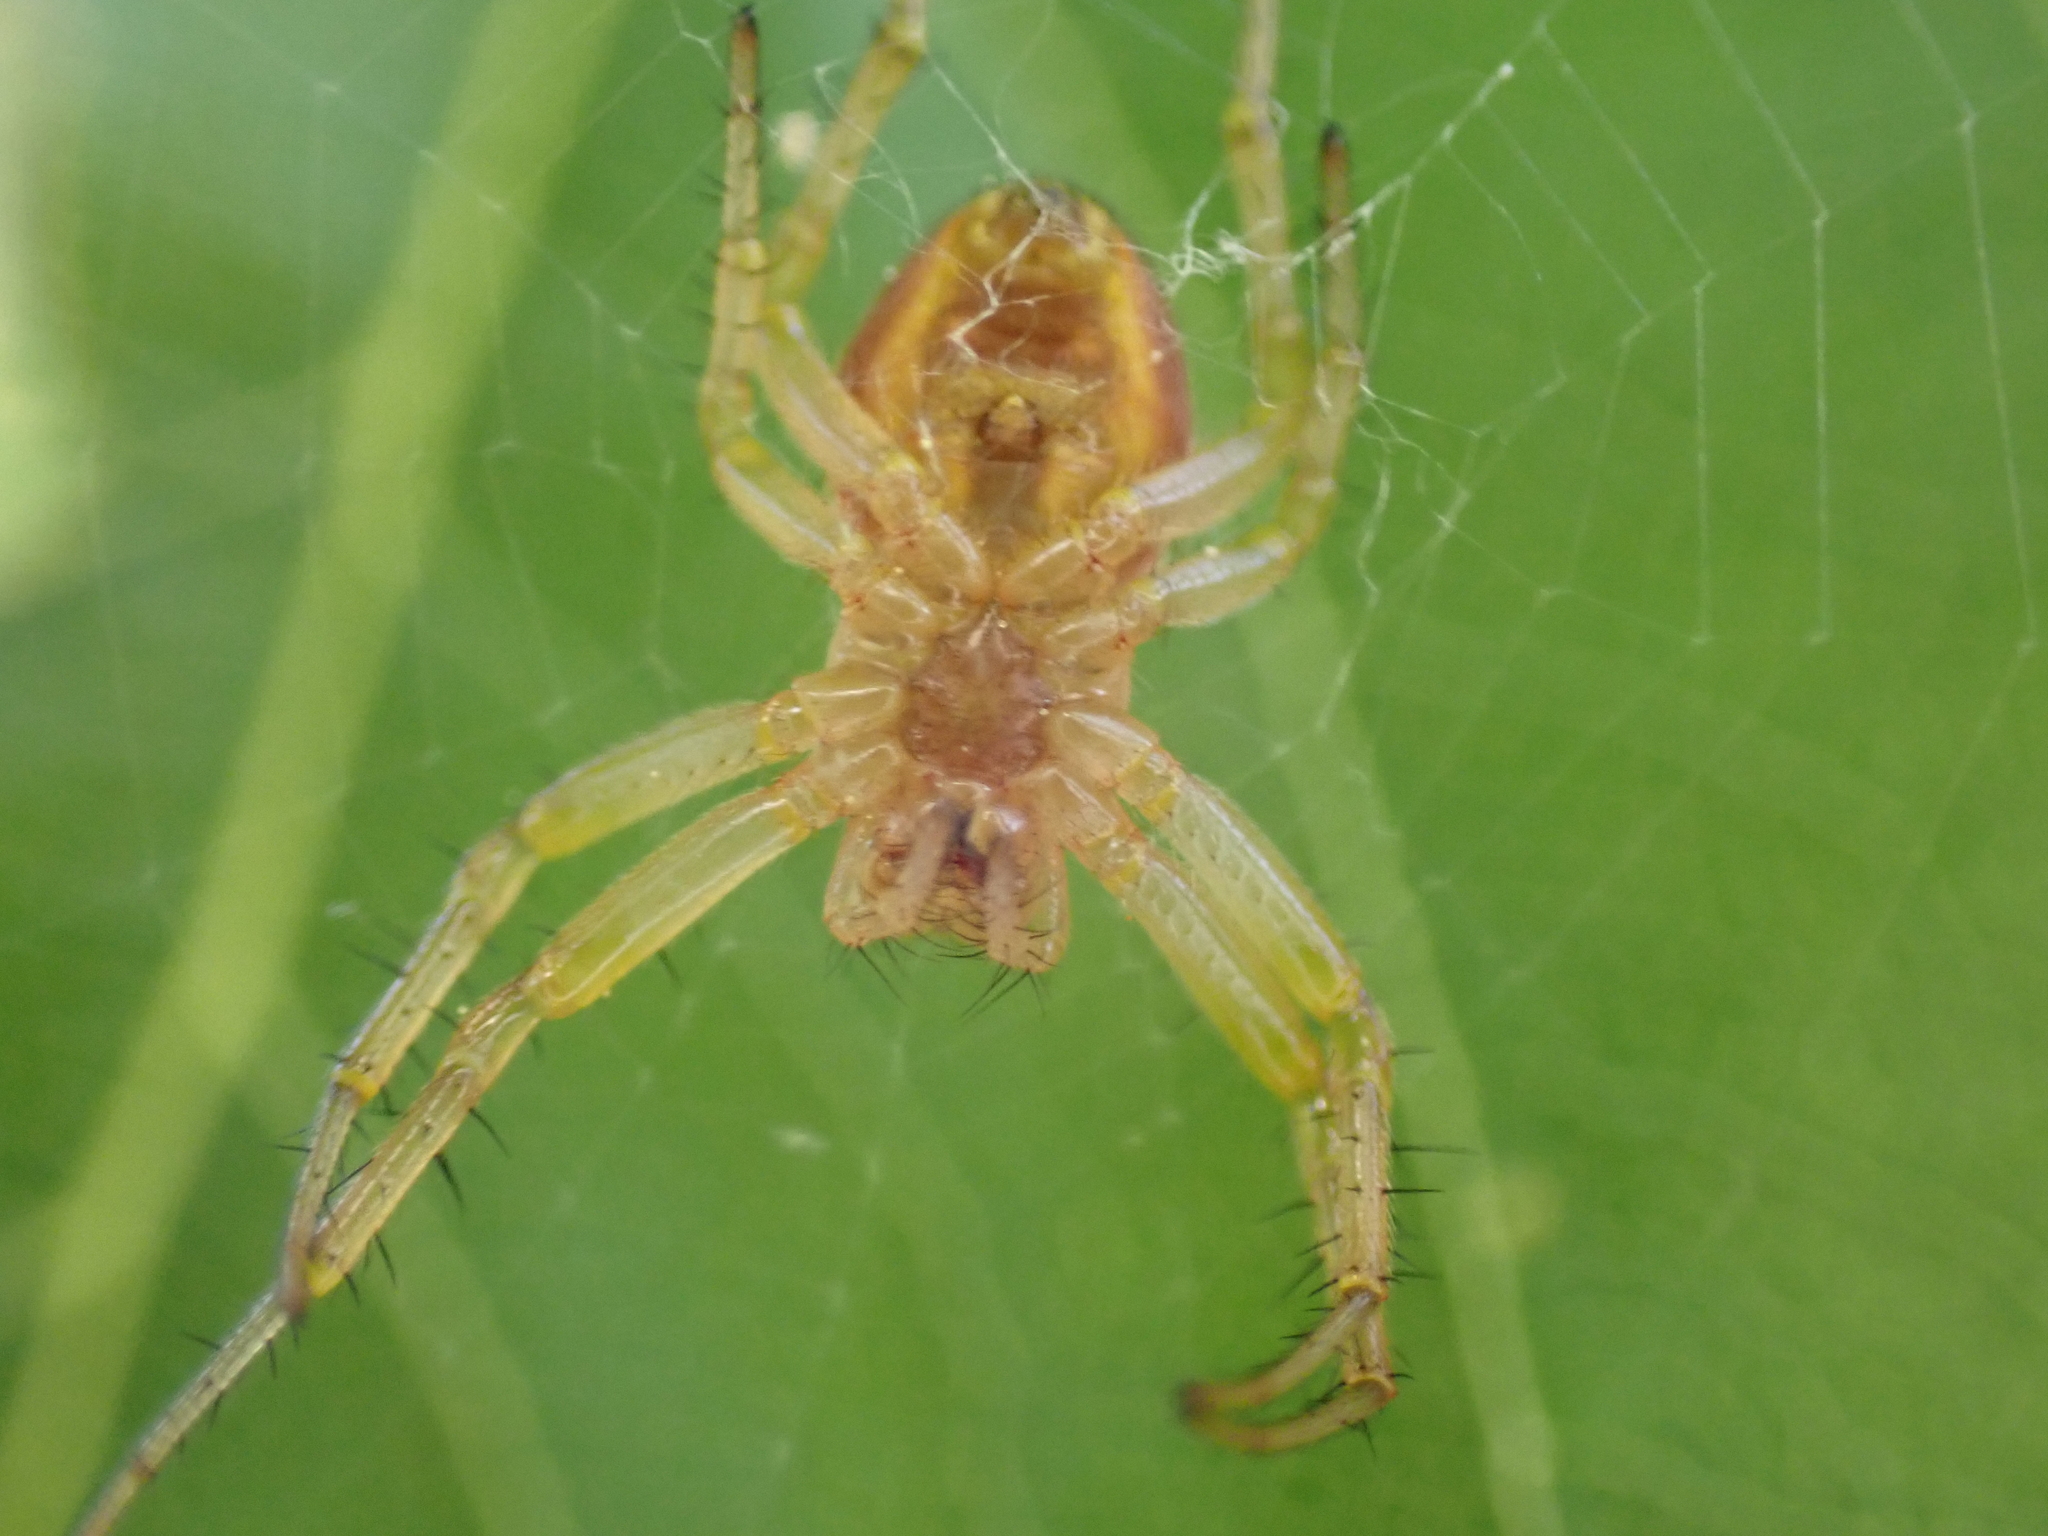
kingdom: Animalia
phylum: Arthropoda
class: Arachnida
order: Araneae
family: Araneidae
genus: Araniella
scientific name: Araniella displicata
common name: Sixspotted orb weaver
